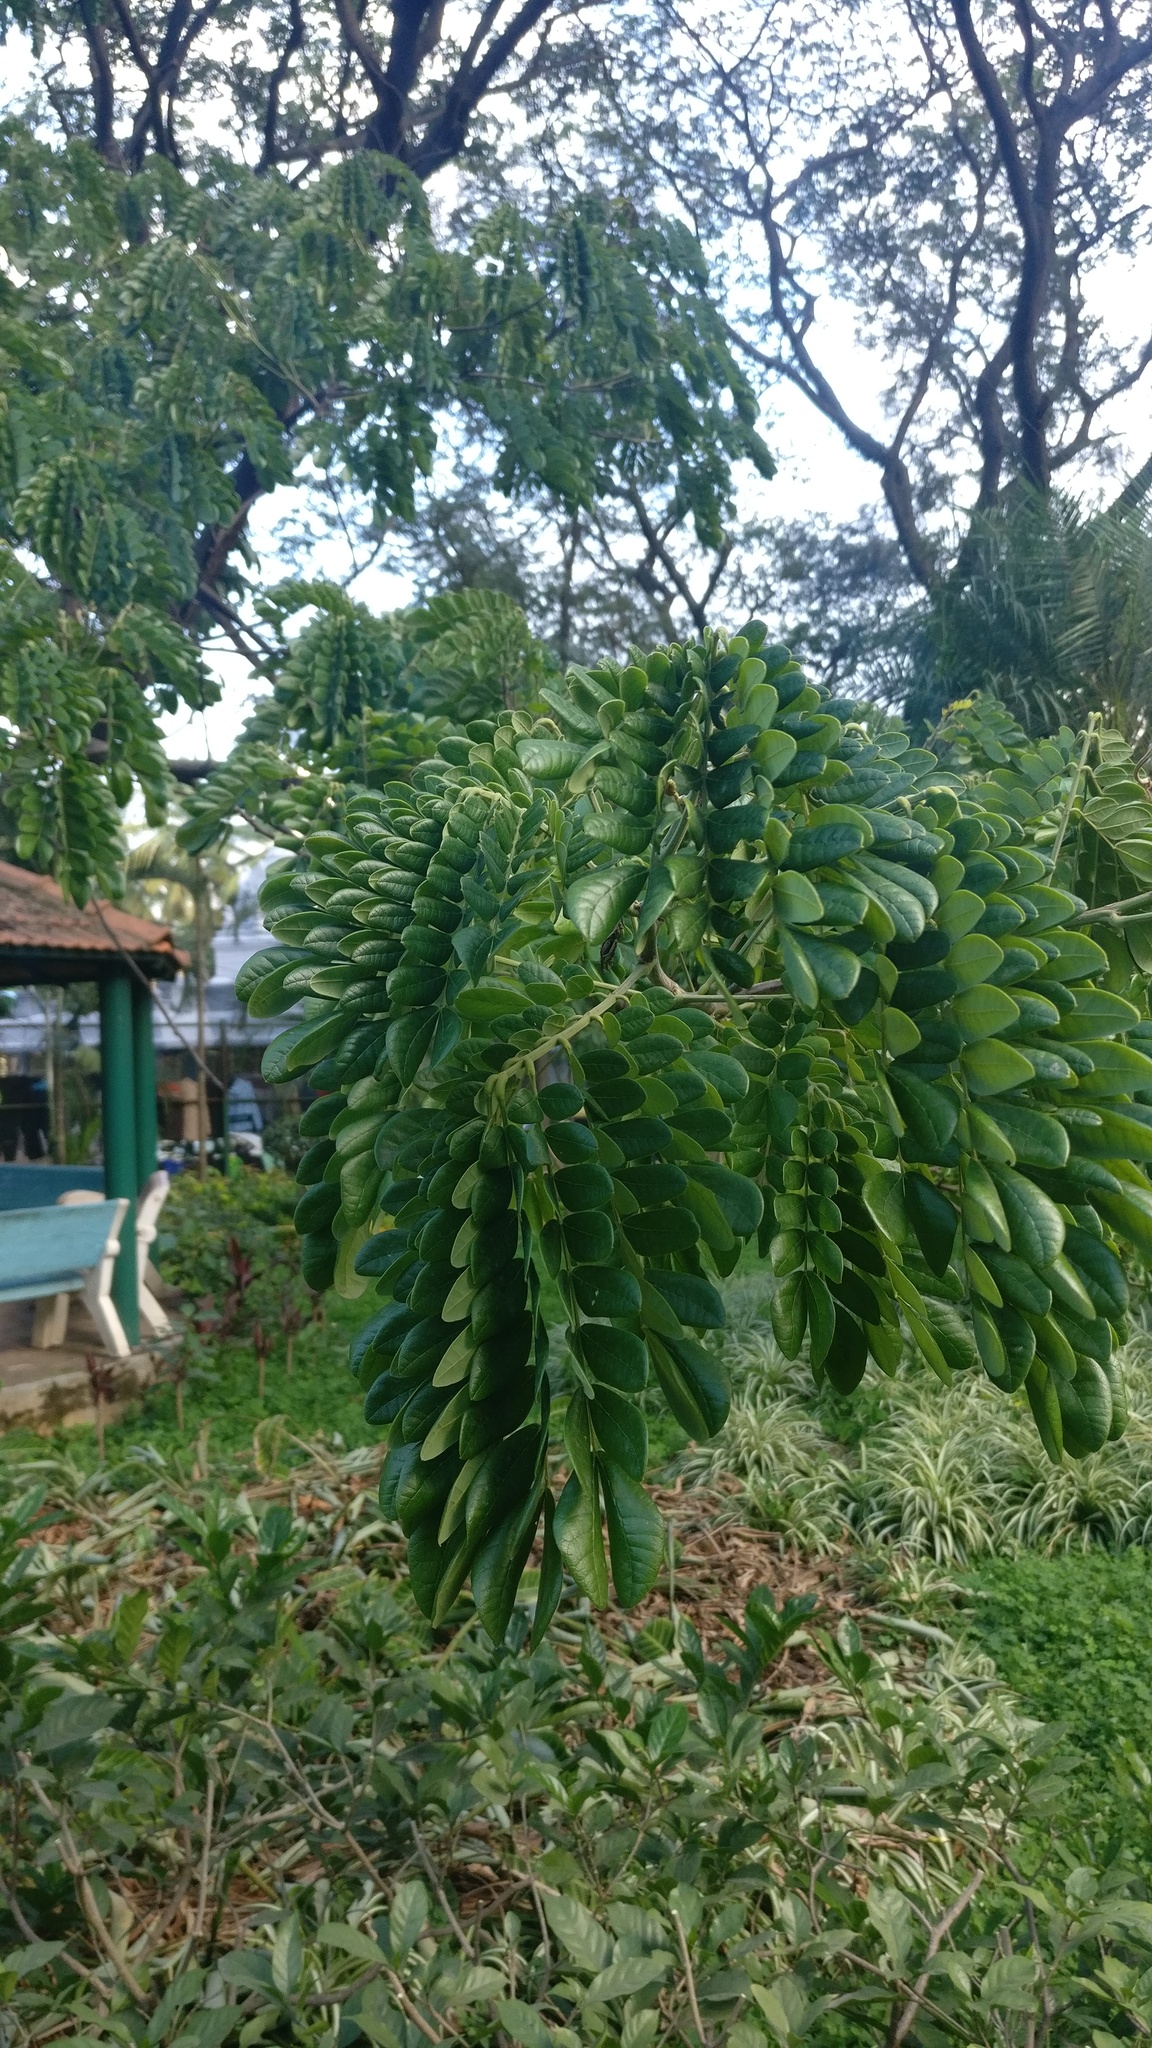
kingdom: Plantae
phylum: Tracheophyta
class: Magnoliopsida
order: Fabales
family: Fabaceae
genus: Samanea
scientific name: Samanea saman
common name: Raintree
